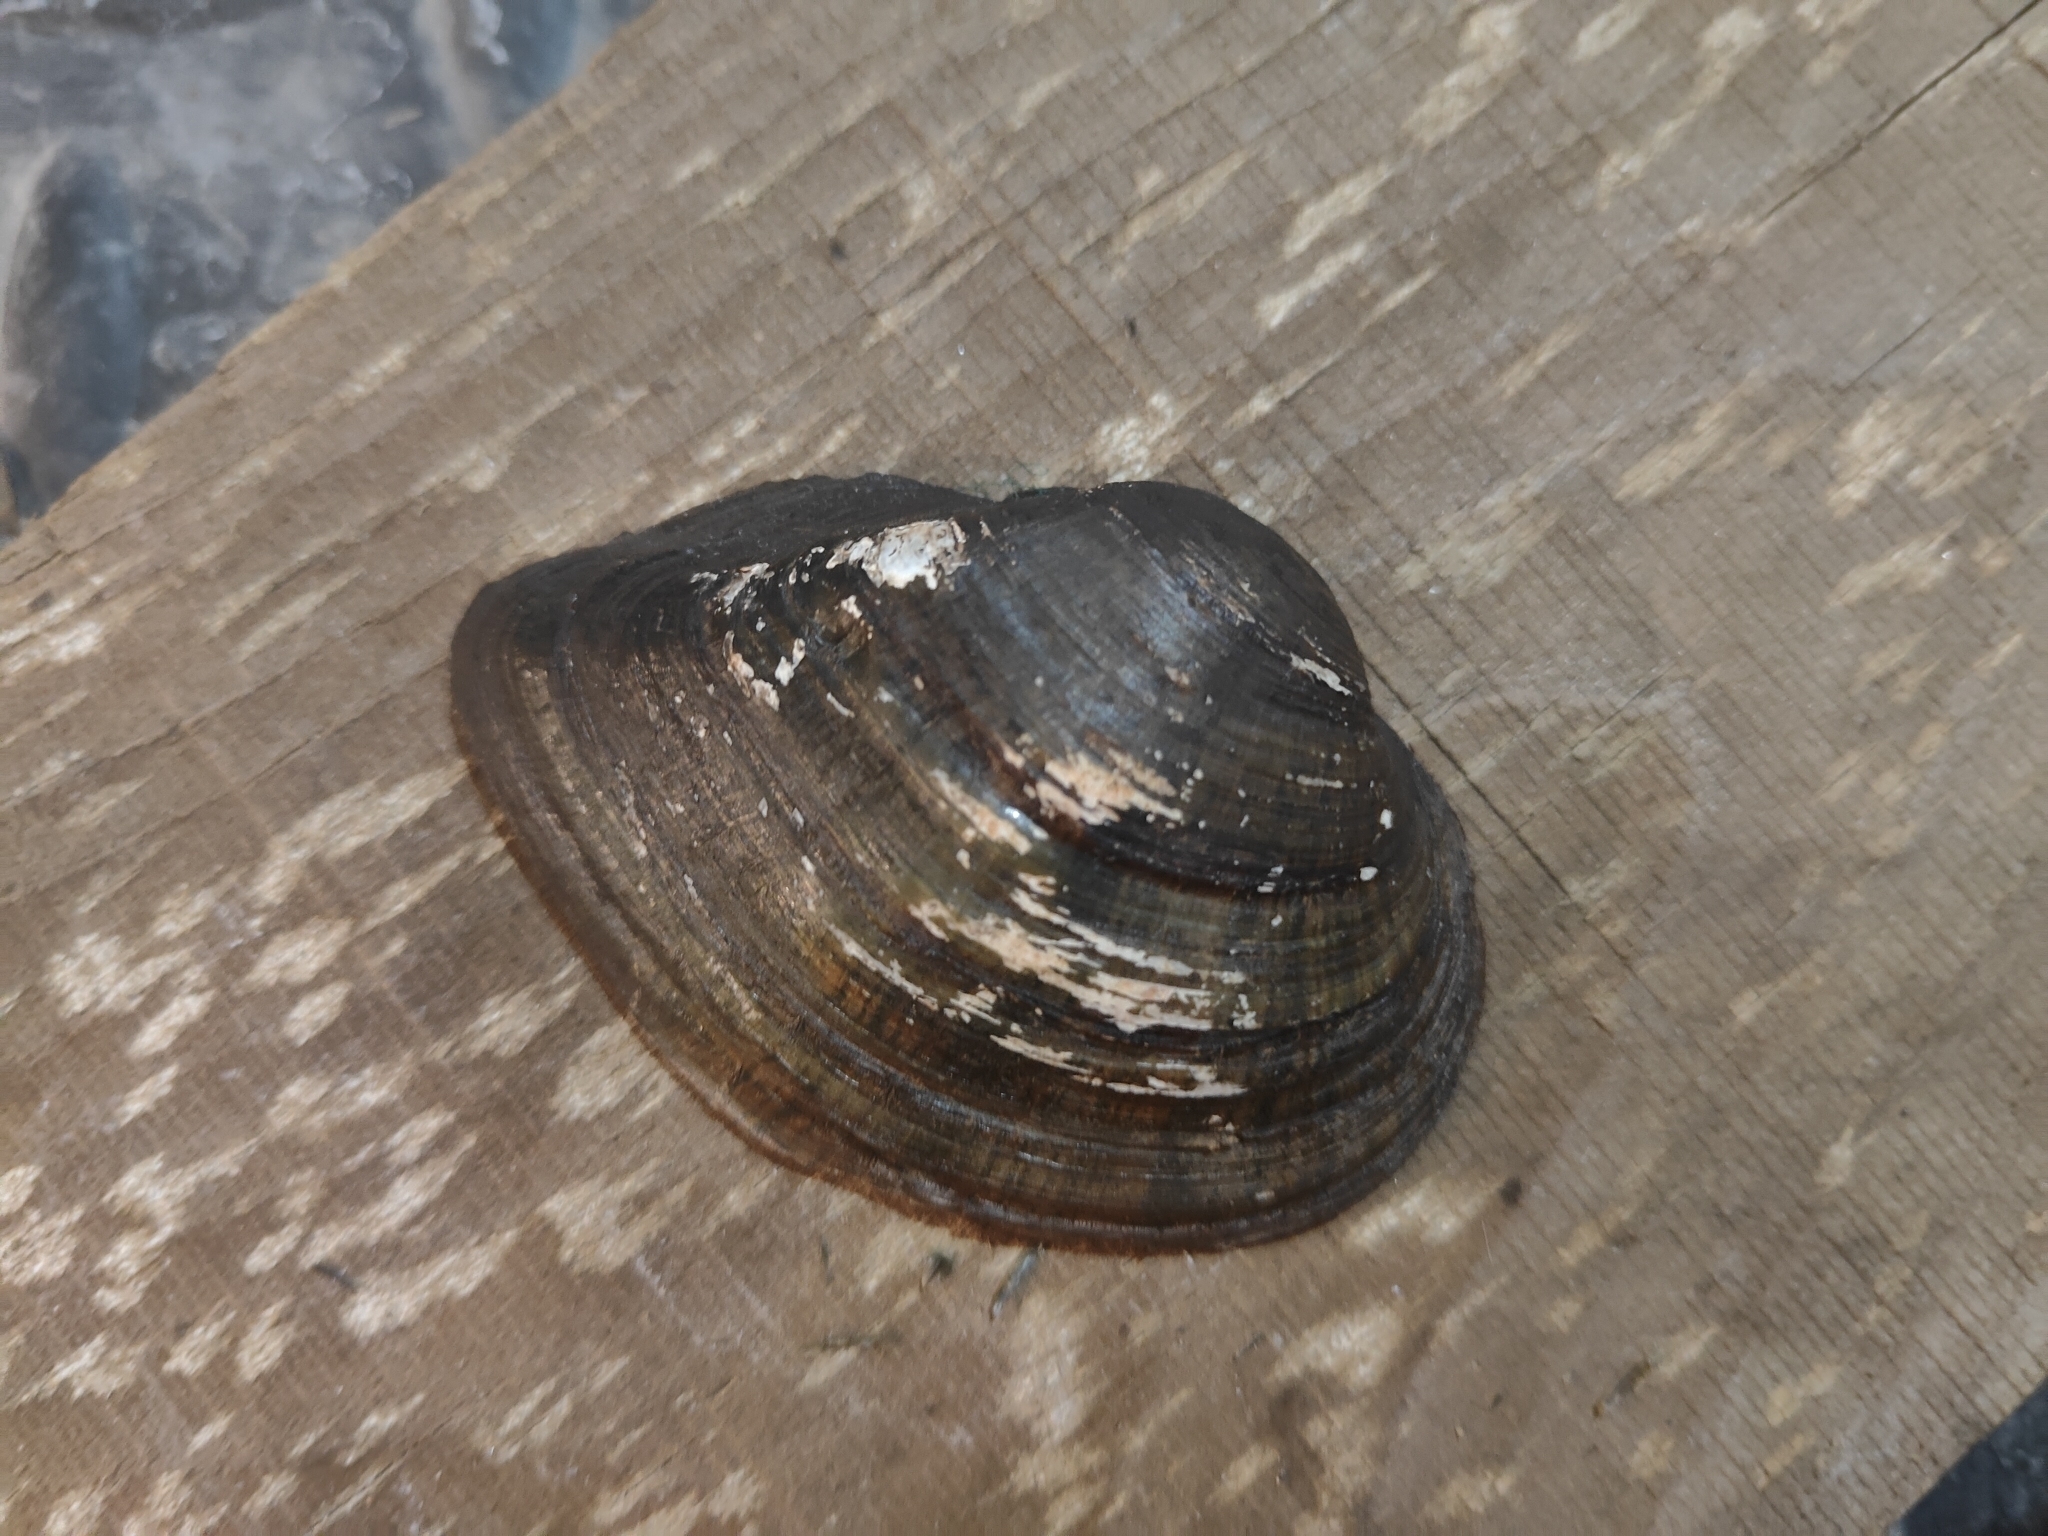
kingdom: Animalia
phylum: Mollusca
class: Bivalvia
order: Unionida
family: Unionidae
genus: Truncilla
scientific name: Truncilla truncata
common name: Deertoe
